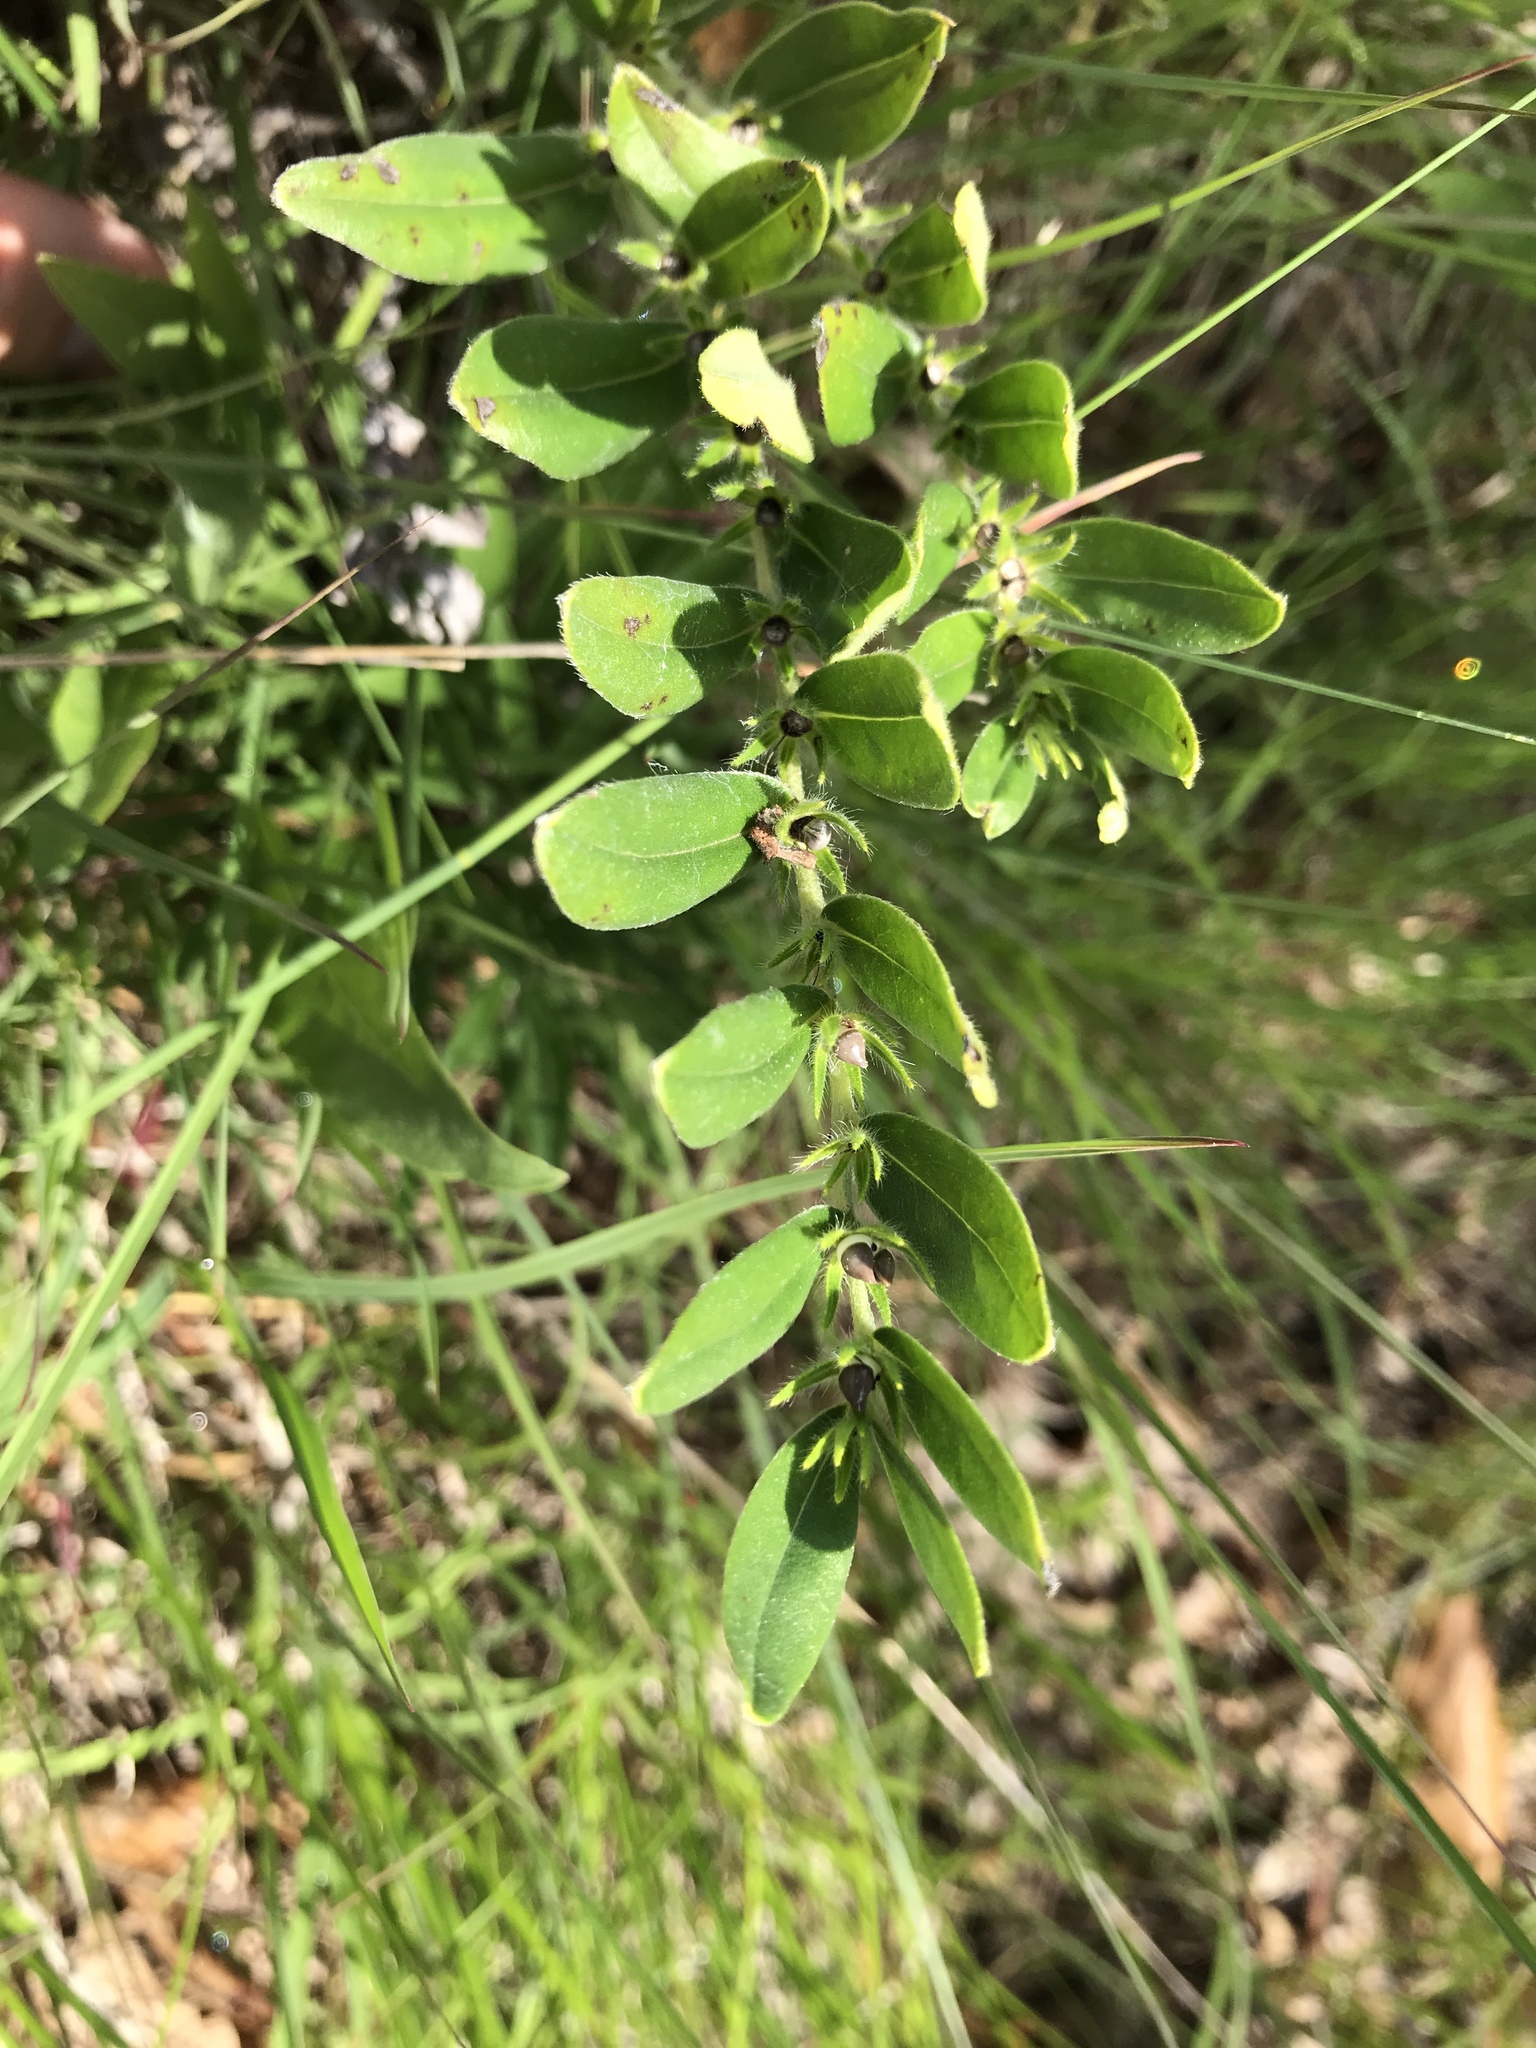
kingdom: Plantae
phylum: Tracheophyta
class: Magnoliopsida
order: Boraginales
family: Boraginaceae
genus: Lithospermum
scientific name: Lithospermum canescens
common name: Hoary puccoon
